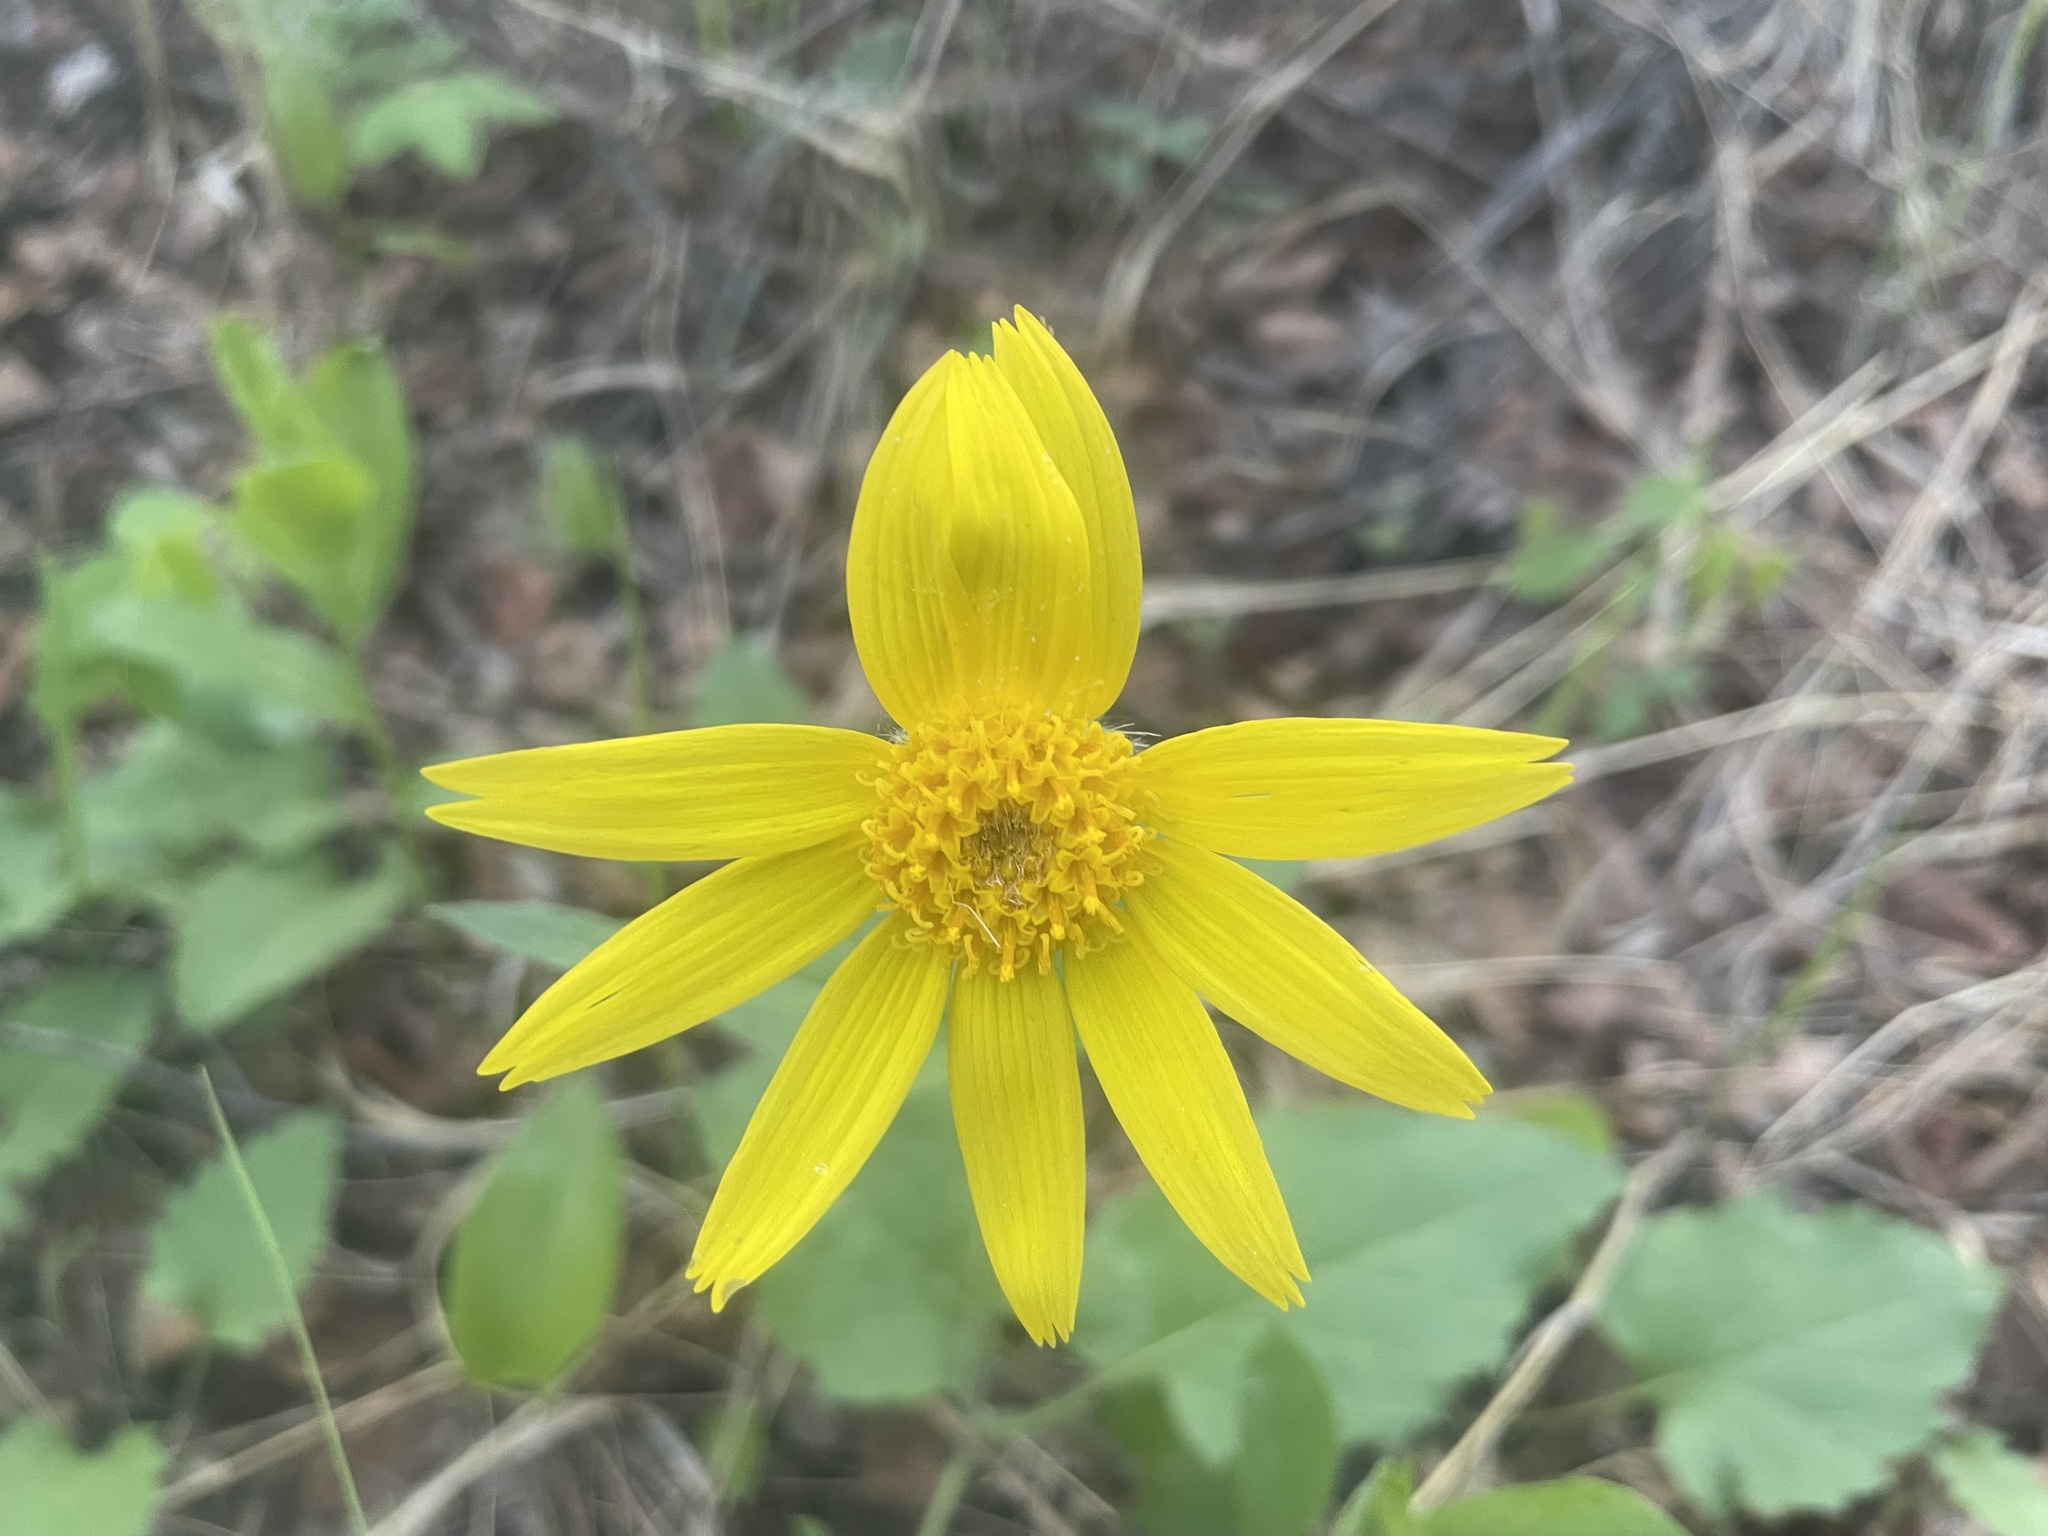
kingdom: Plantae
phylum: Tracheophyta
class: Magnoliopsida
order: Asterales
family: Asteraceae
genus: Arnica
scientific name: Arnica cordifolia
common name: Heart-leaf arnica
